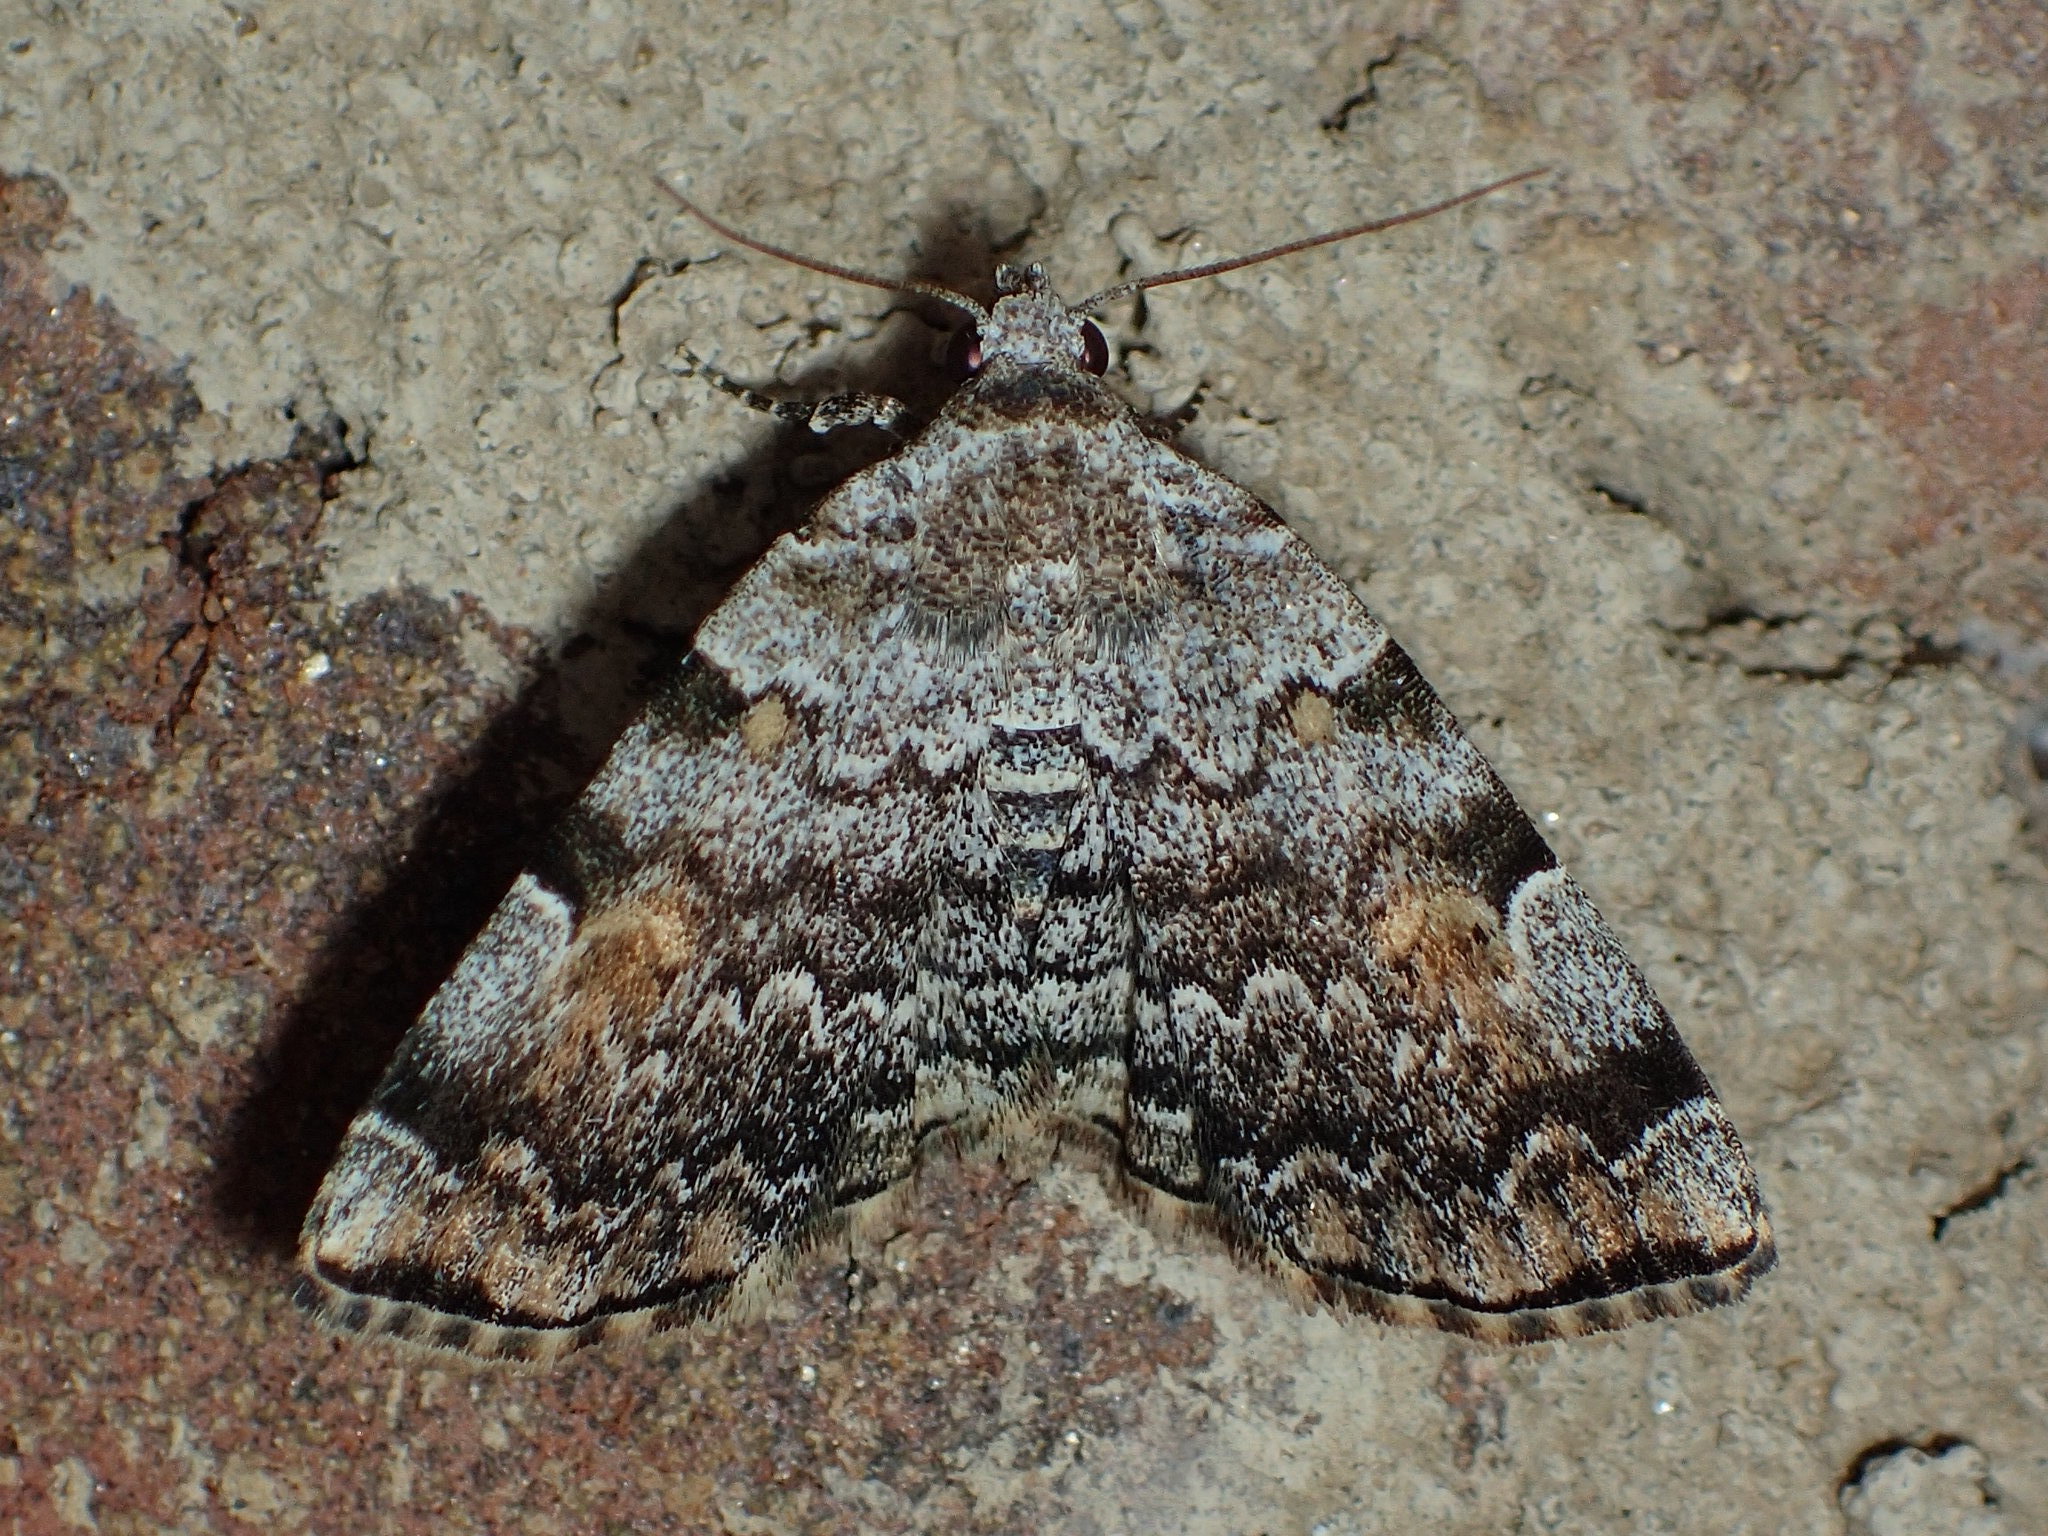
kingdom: Animalia
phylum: Arthropoda
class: Insecta
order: Lepidoptera
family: Erebidae
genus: Idia
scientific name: Idia americalis
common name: American idia moth
